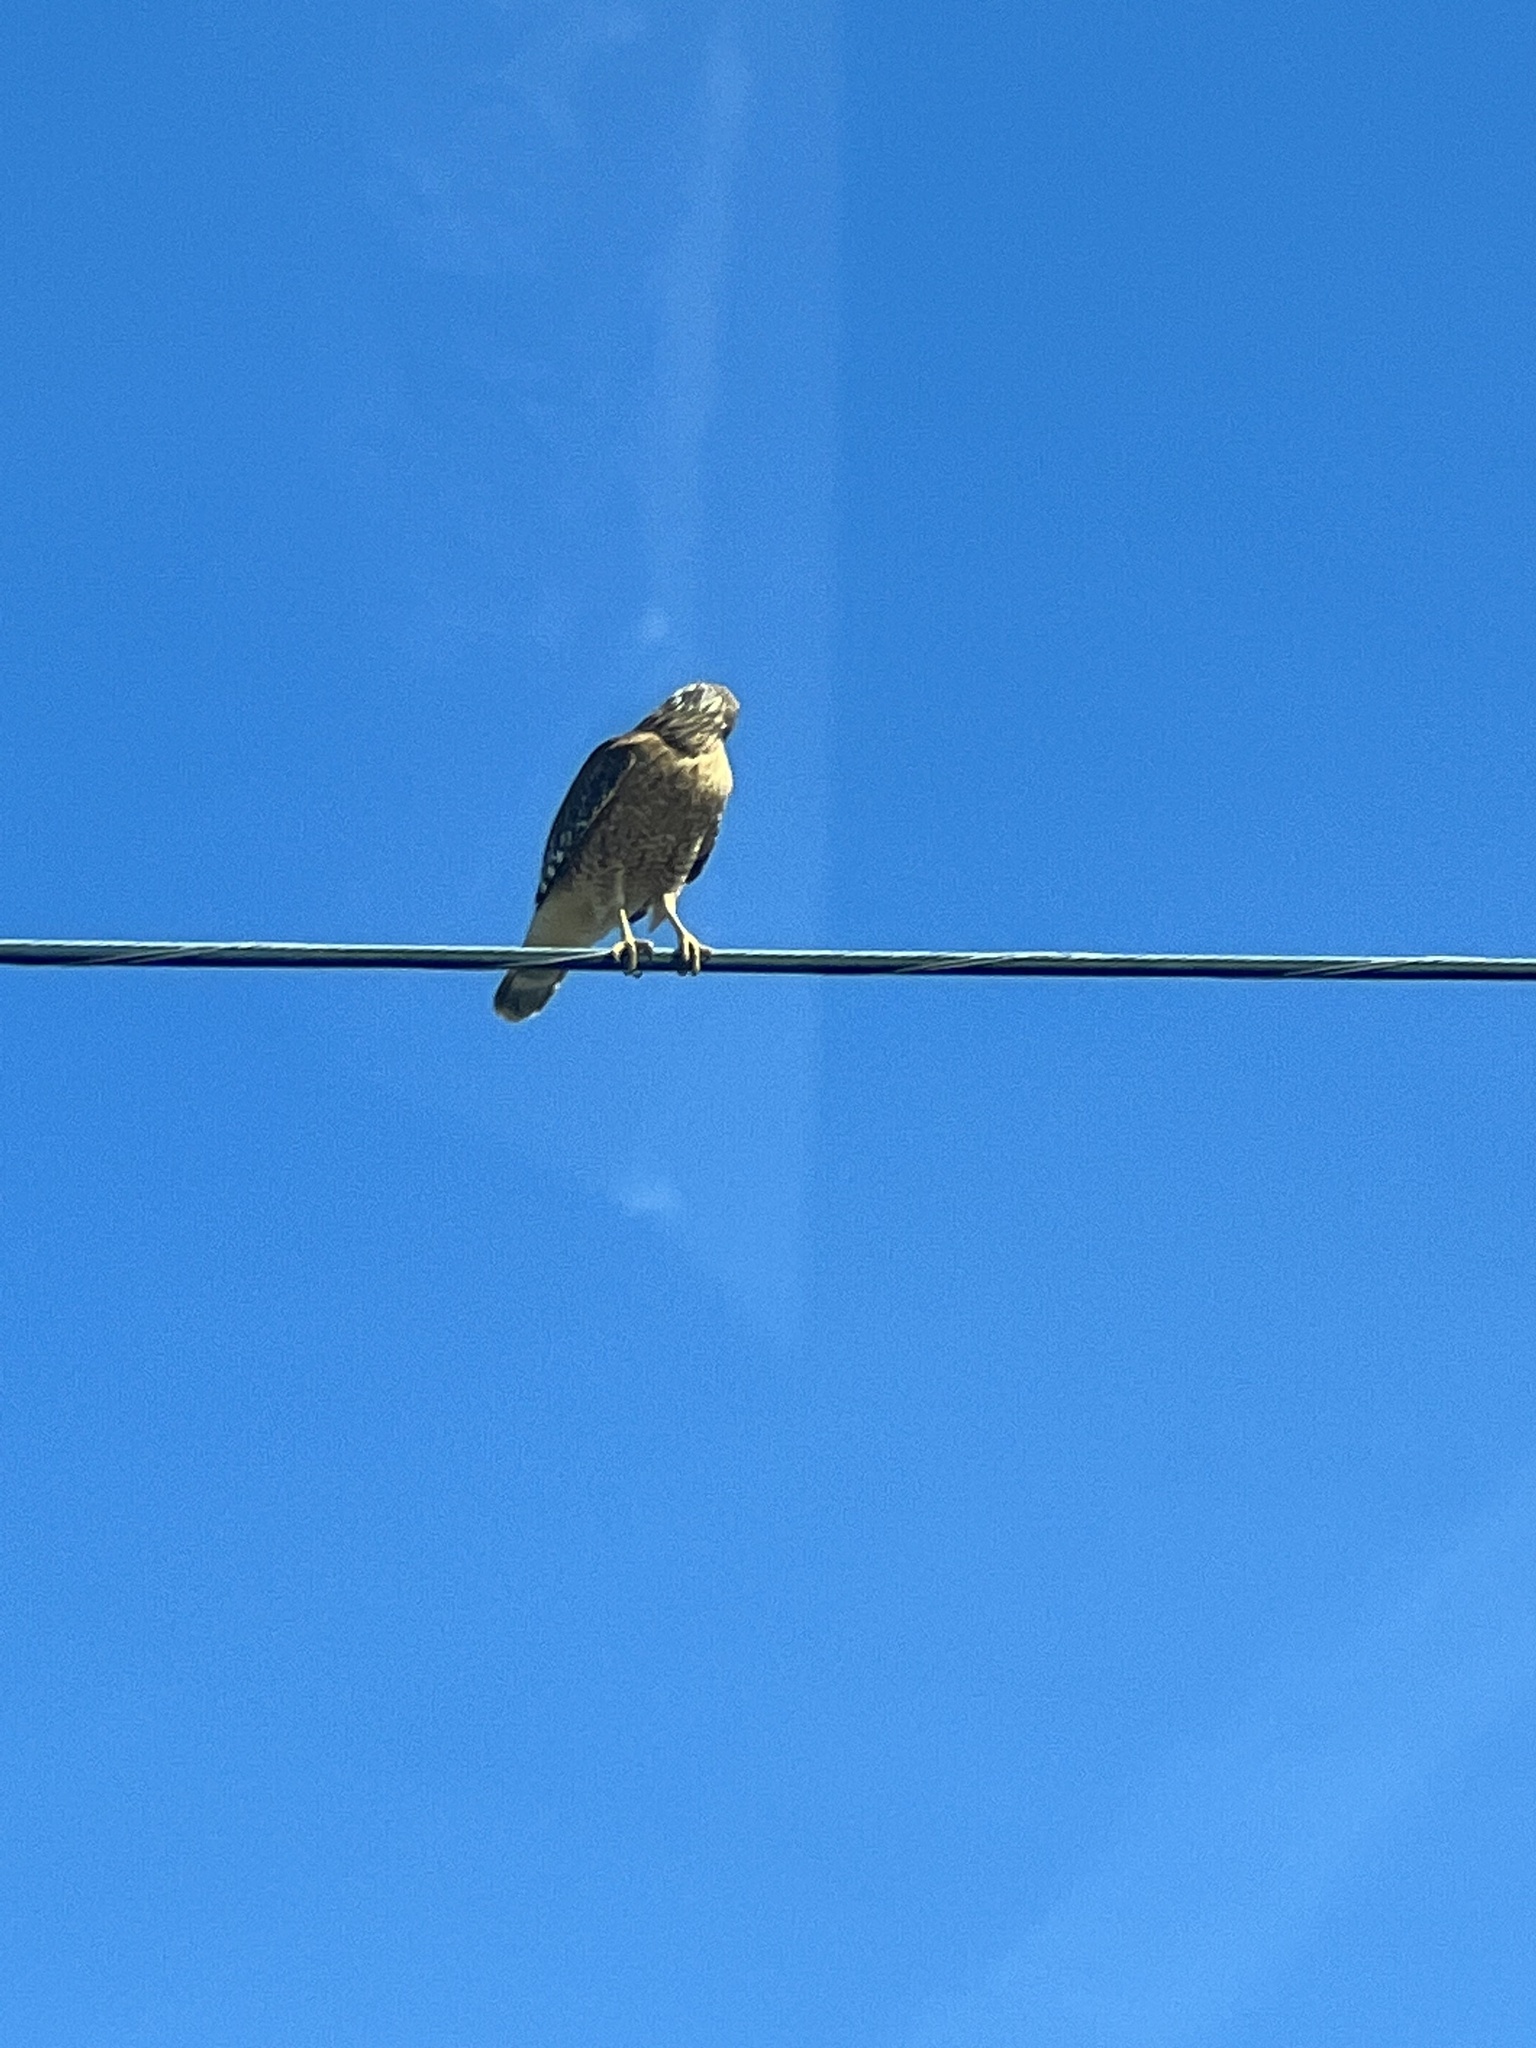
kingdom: Animalia
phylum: Chordata
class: Aves
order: Accipitriformes
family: Accipitridae
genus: Buteo
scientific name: Buteo lineatus
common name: Red-shouldered hawk
